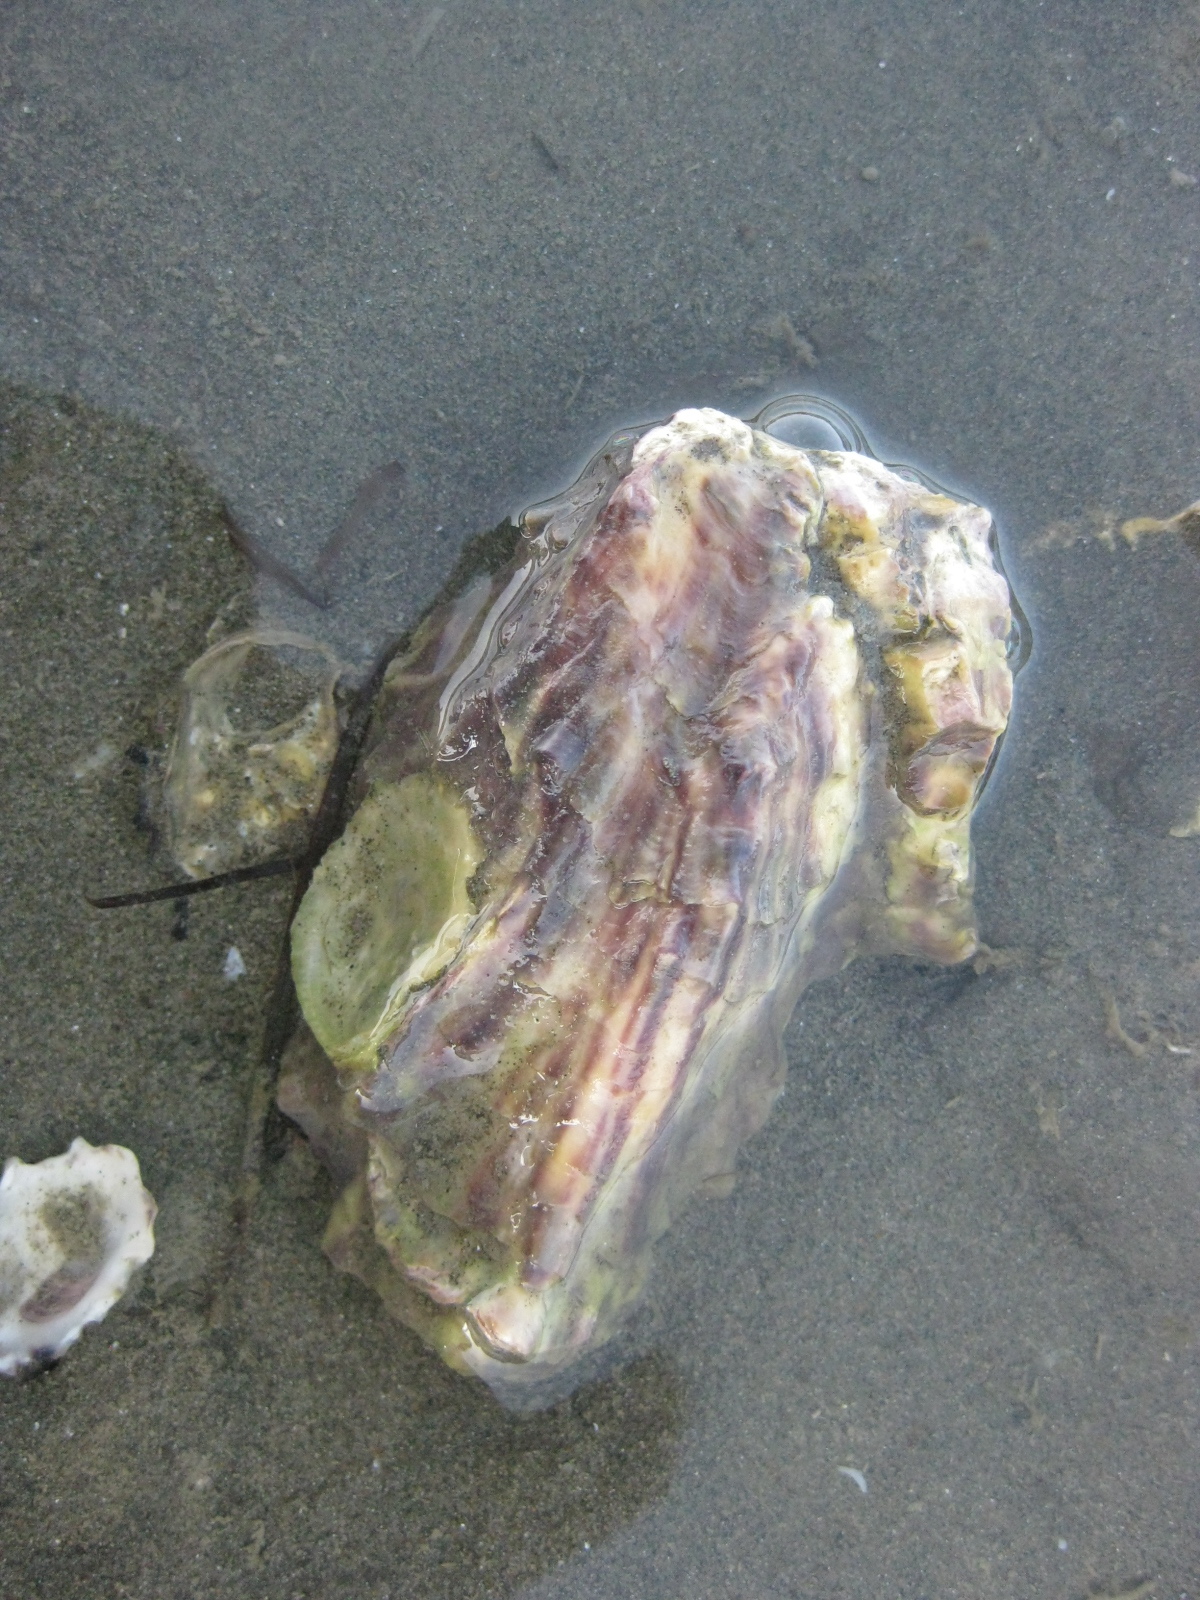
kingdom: Animalia
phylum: Mollusca
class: Bivalvia
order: Ostreida
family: Ostreidae
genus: Magallana
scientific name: Magallana gigas
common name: Pacific oyster
